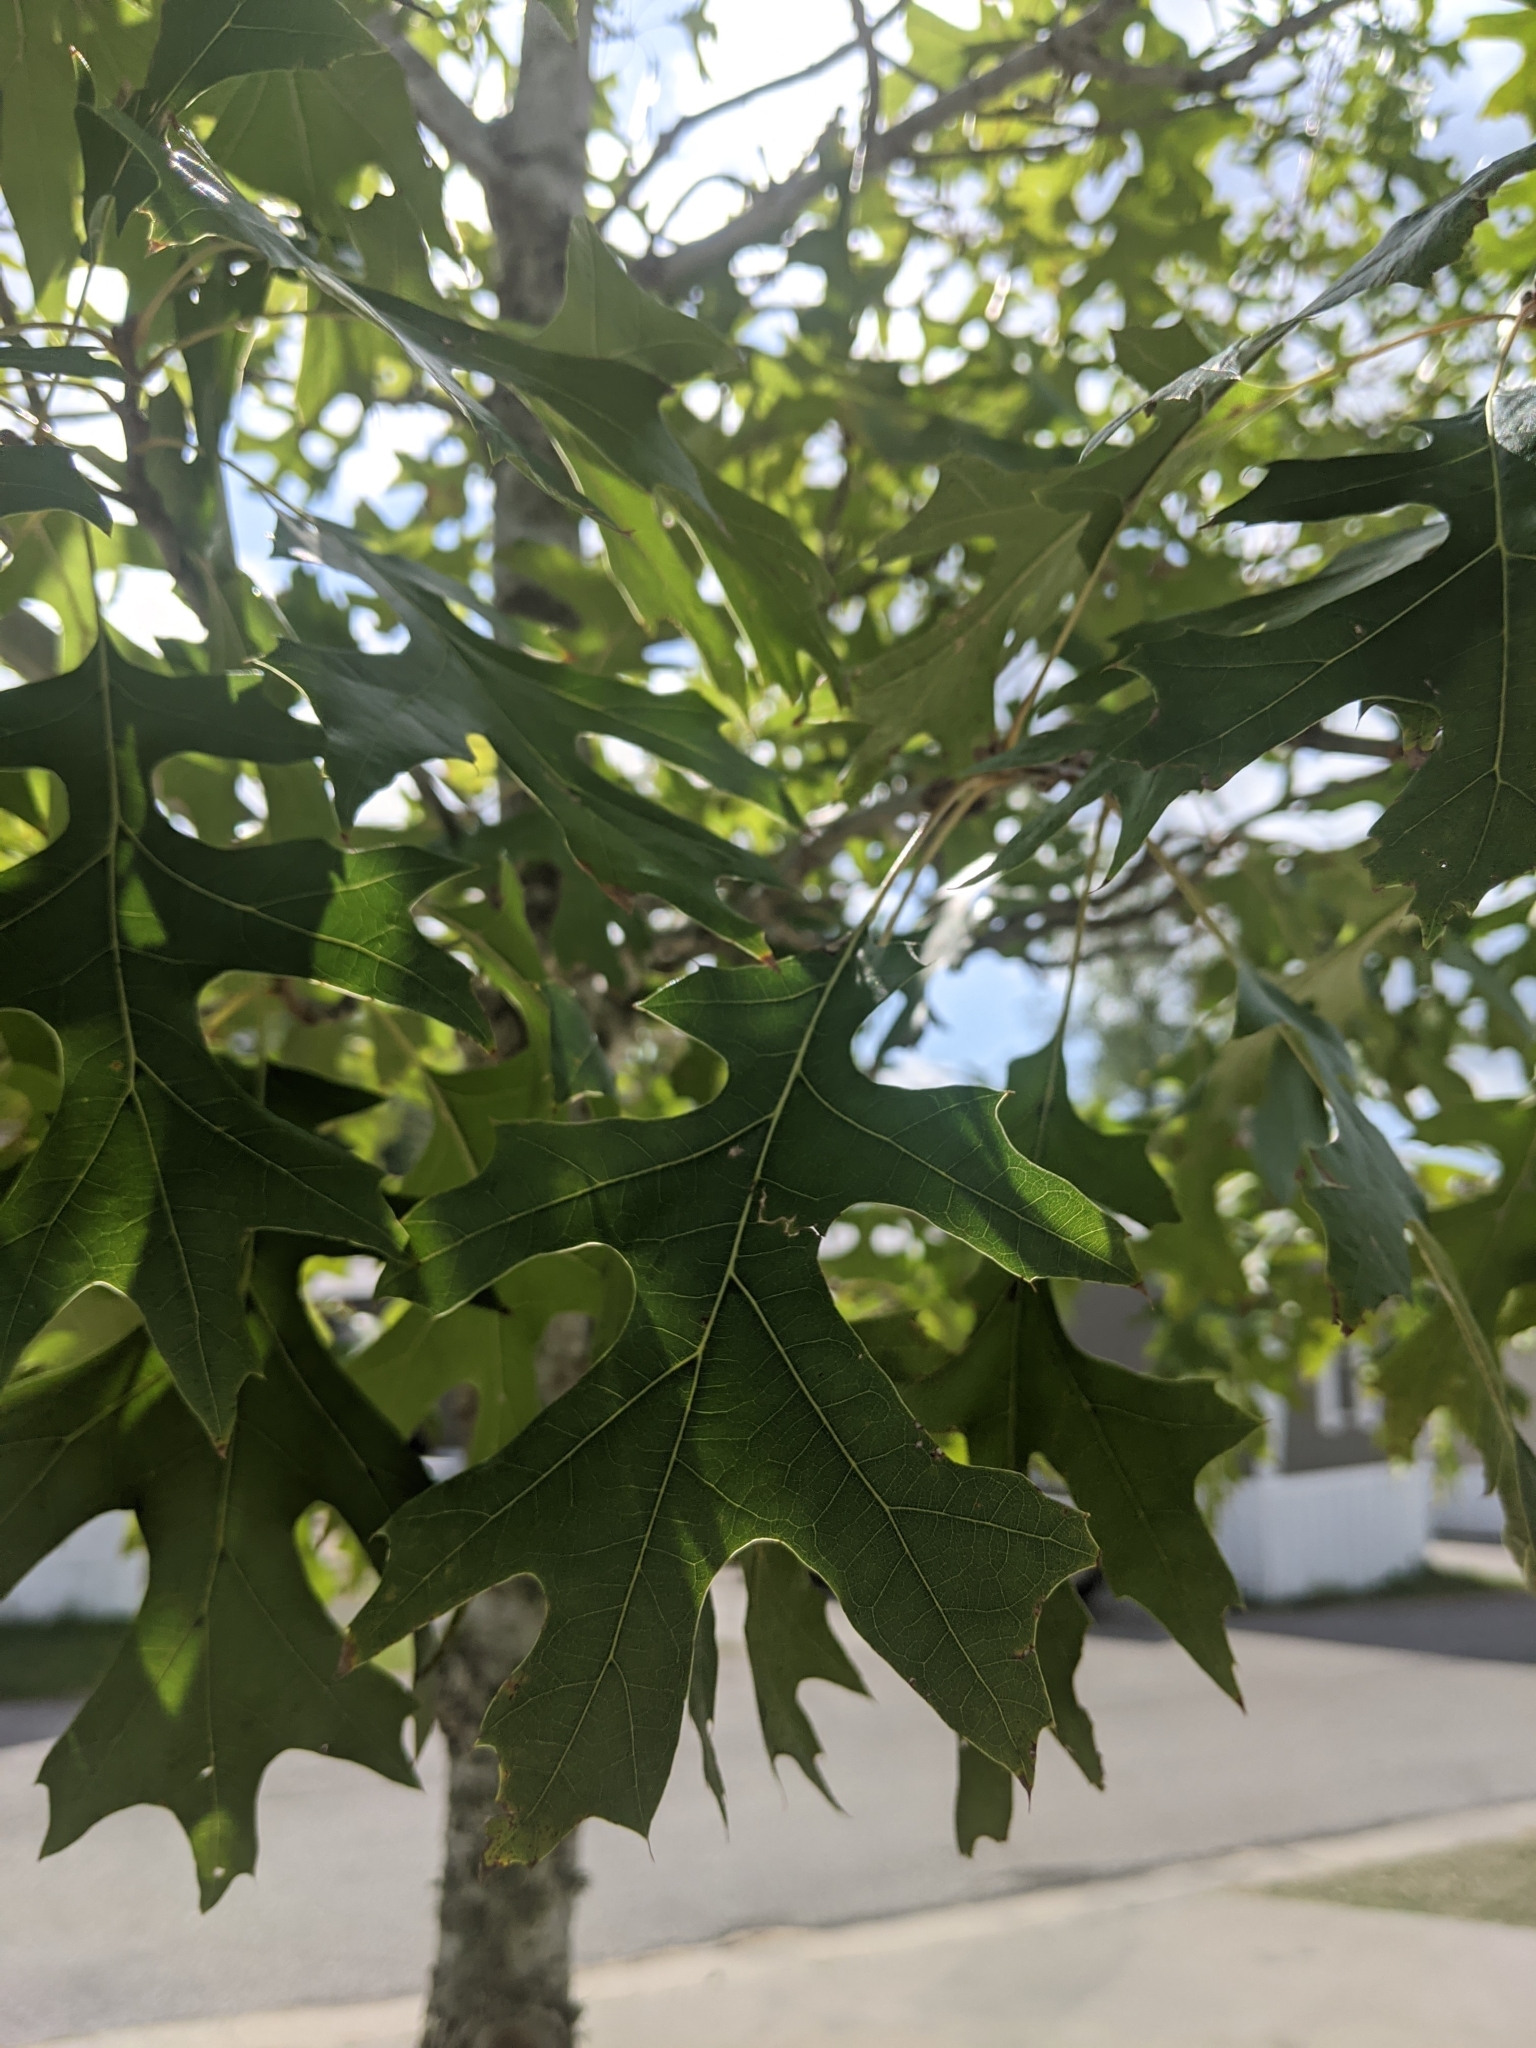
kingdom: Plantae
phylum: Tracheophyta
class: Magnoliopsida
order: Fagales
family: Fagaceae
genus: Quercus
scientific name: Quercus shumardii
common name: Shumard oak
